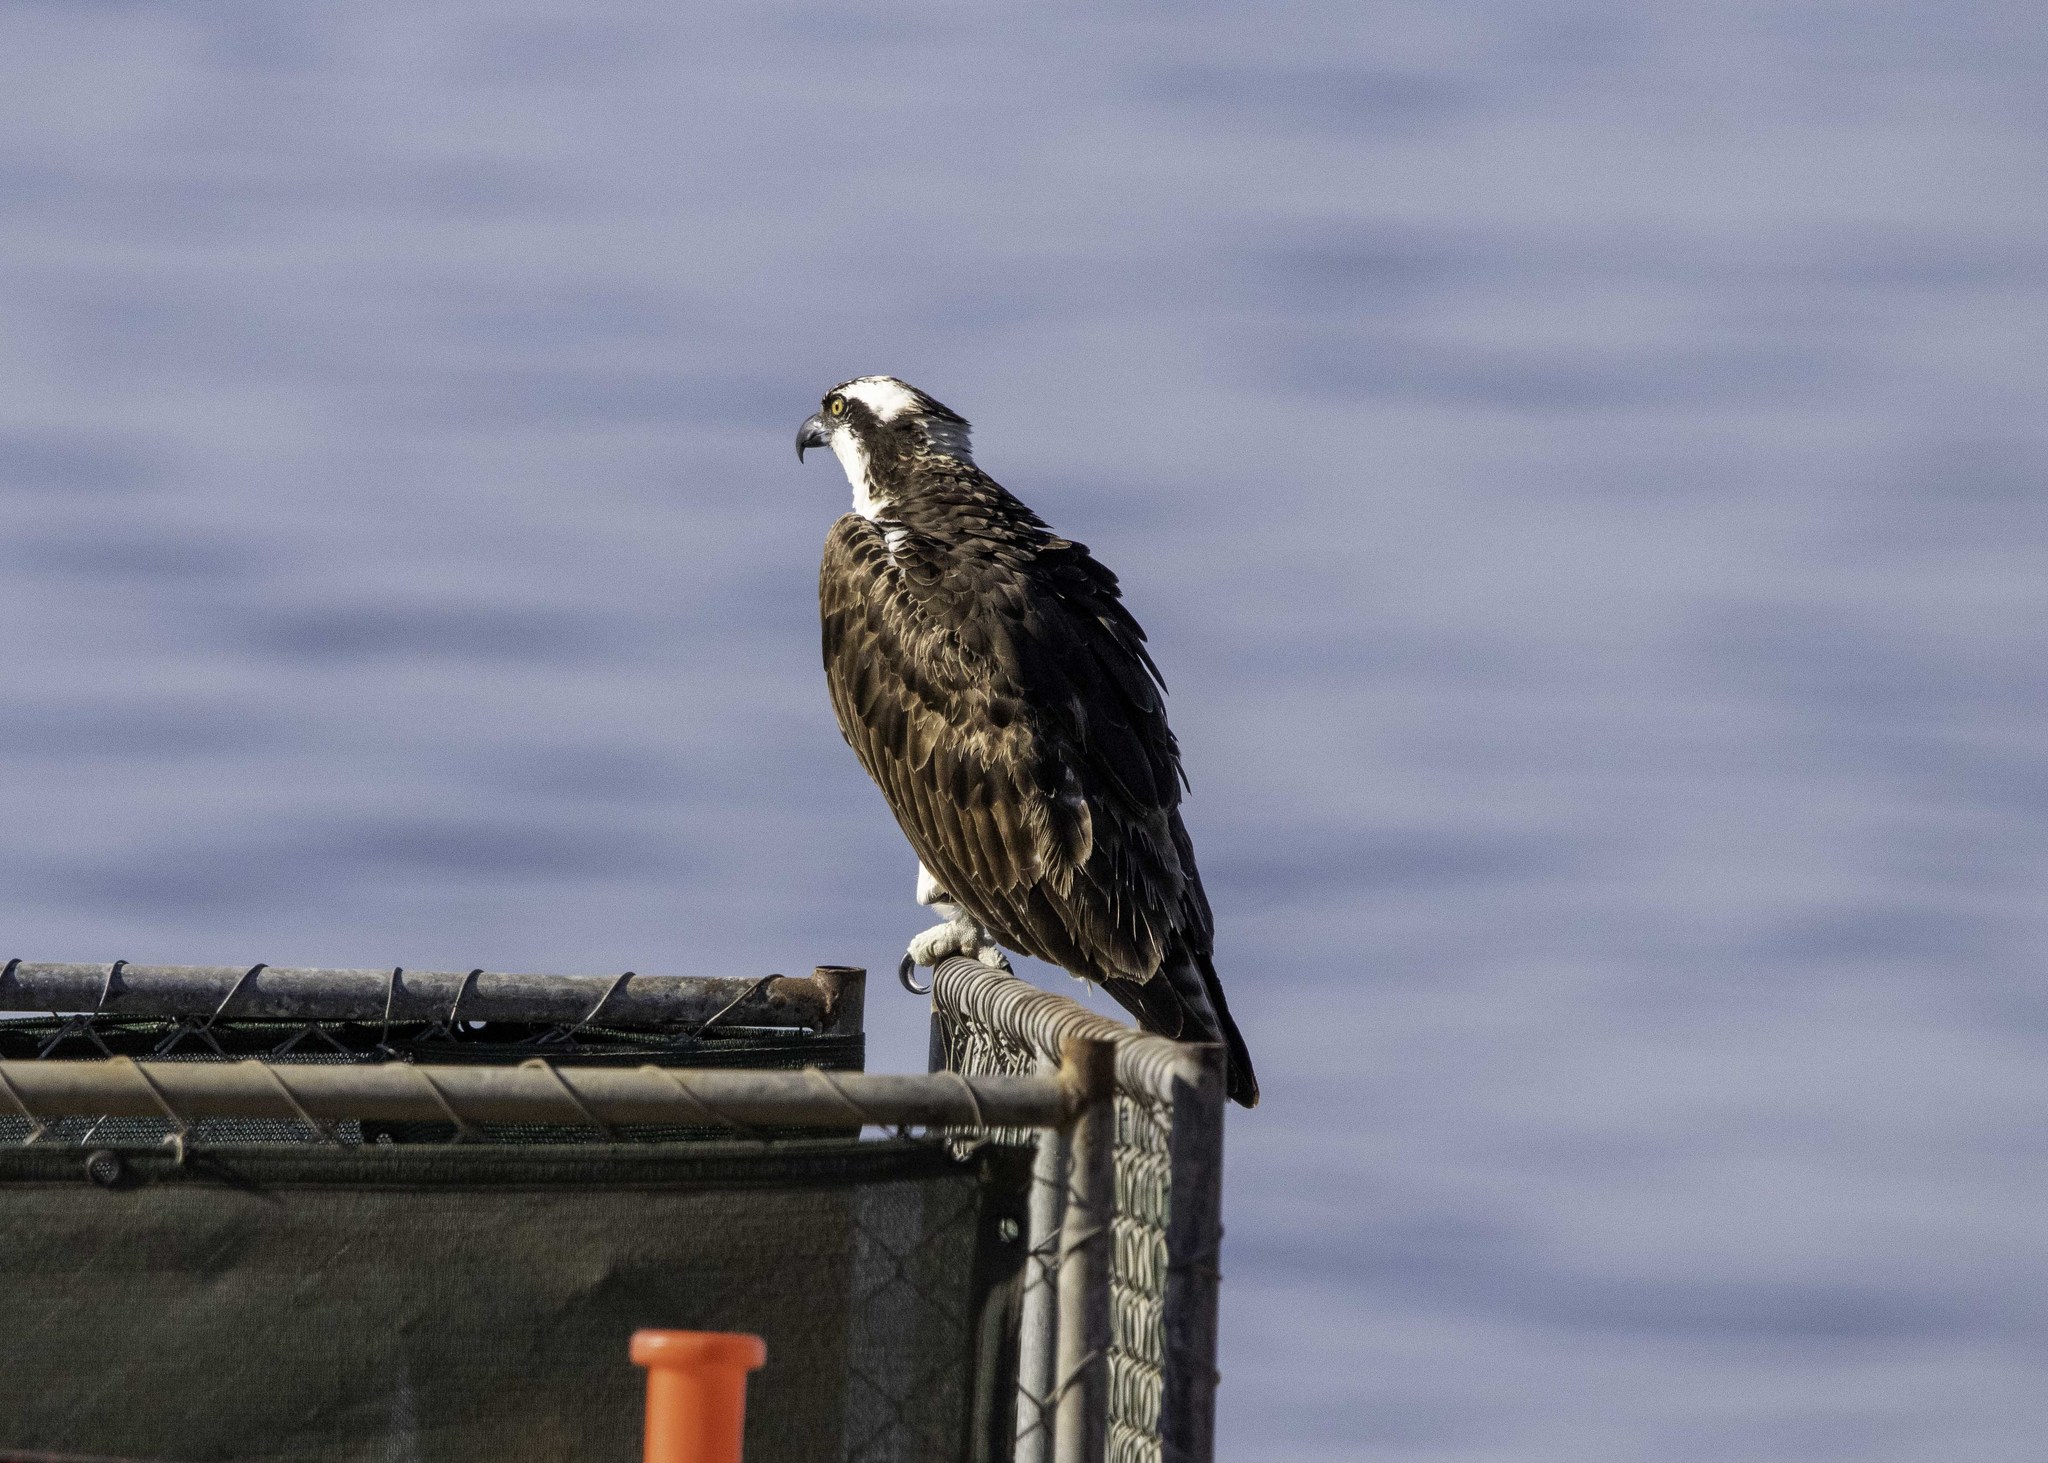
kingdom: Animalia
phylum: Chordata
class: Aves
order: Accipitriformes
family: Pandionidae
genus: Pandion
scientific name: Pandion haliaetus
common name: Osprey
